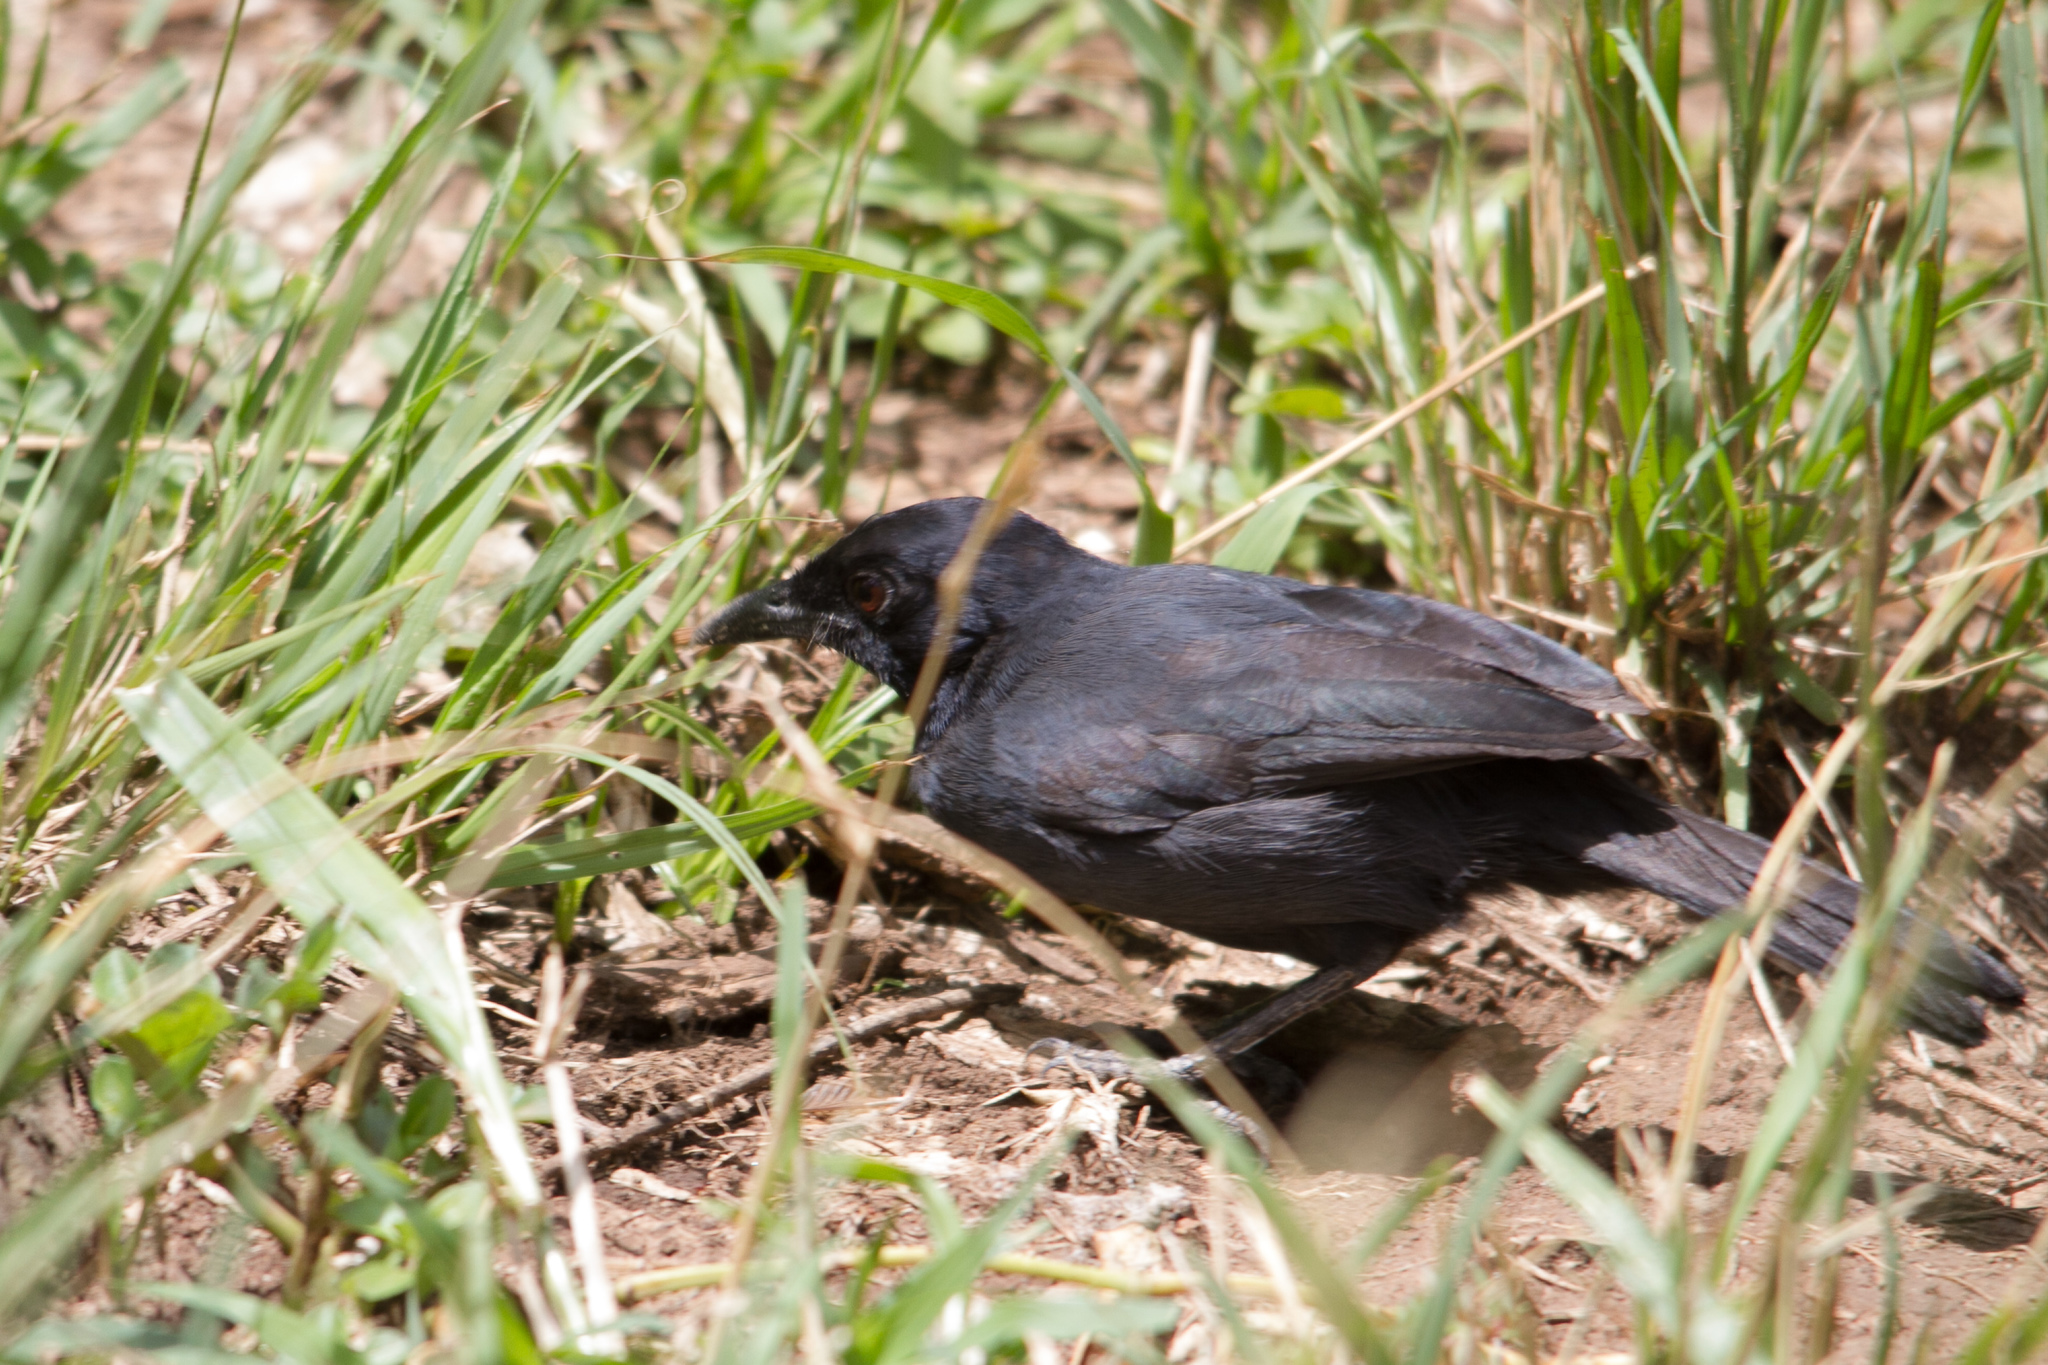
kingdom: Animalia
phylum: Chordata
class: Aves
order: Passeriformes
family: Malaconotidae
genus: Laniarius
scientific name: Laniarius funebris
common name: Slate-colored boubou
